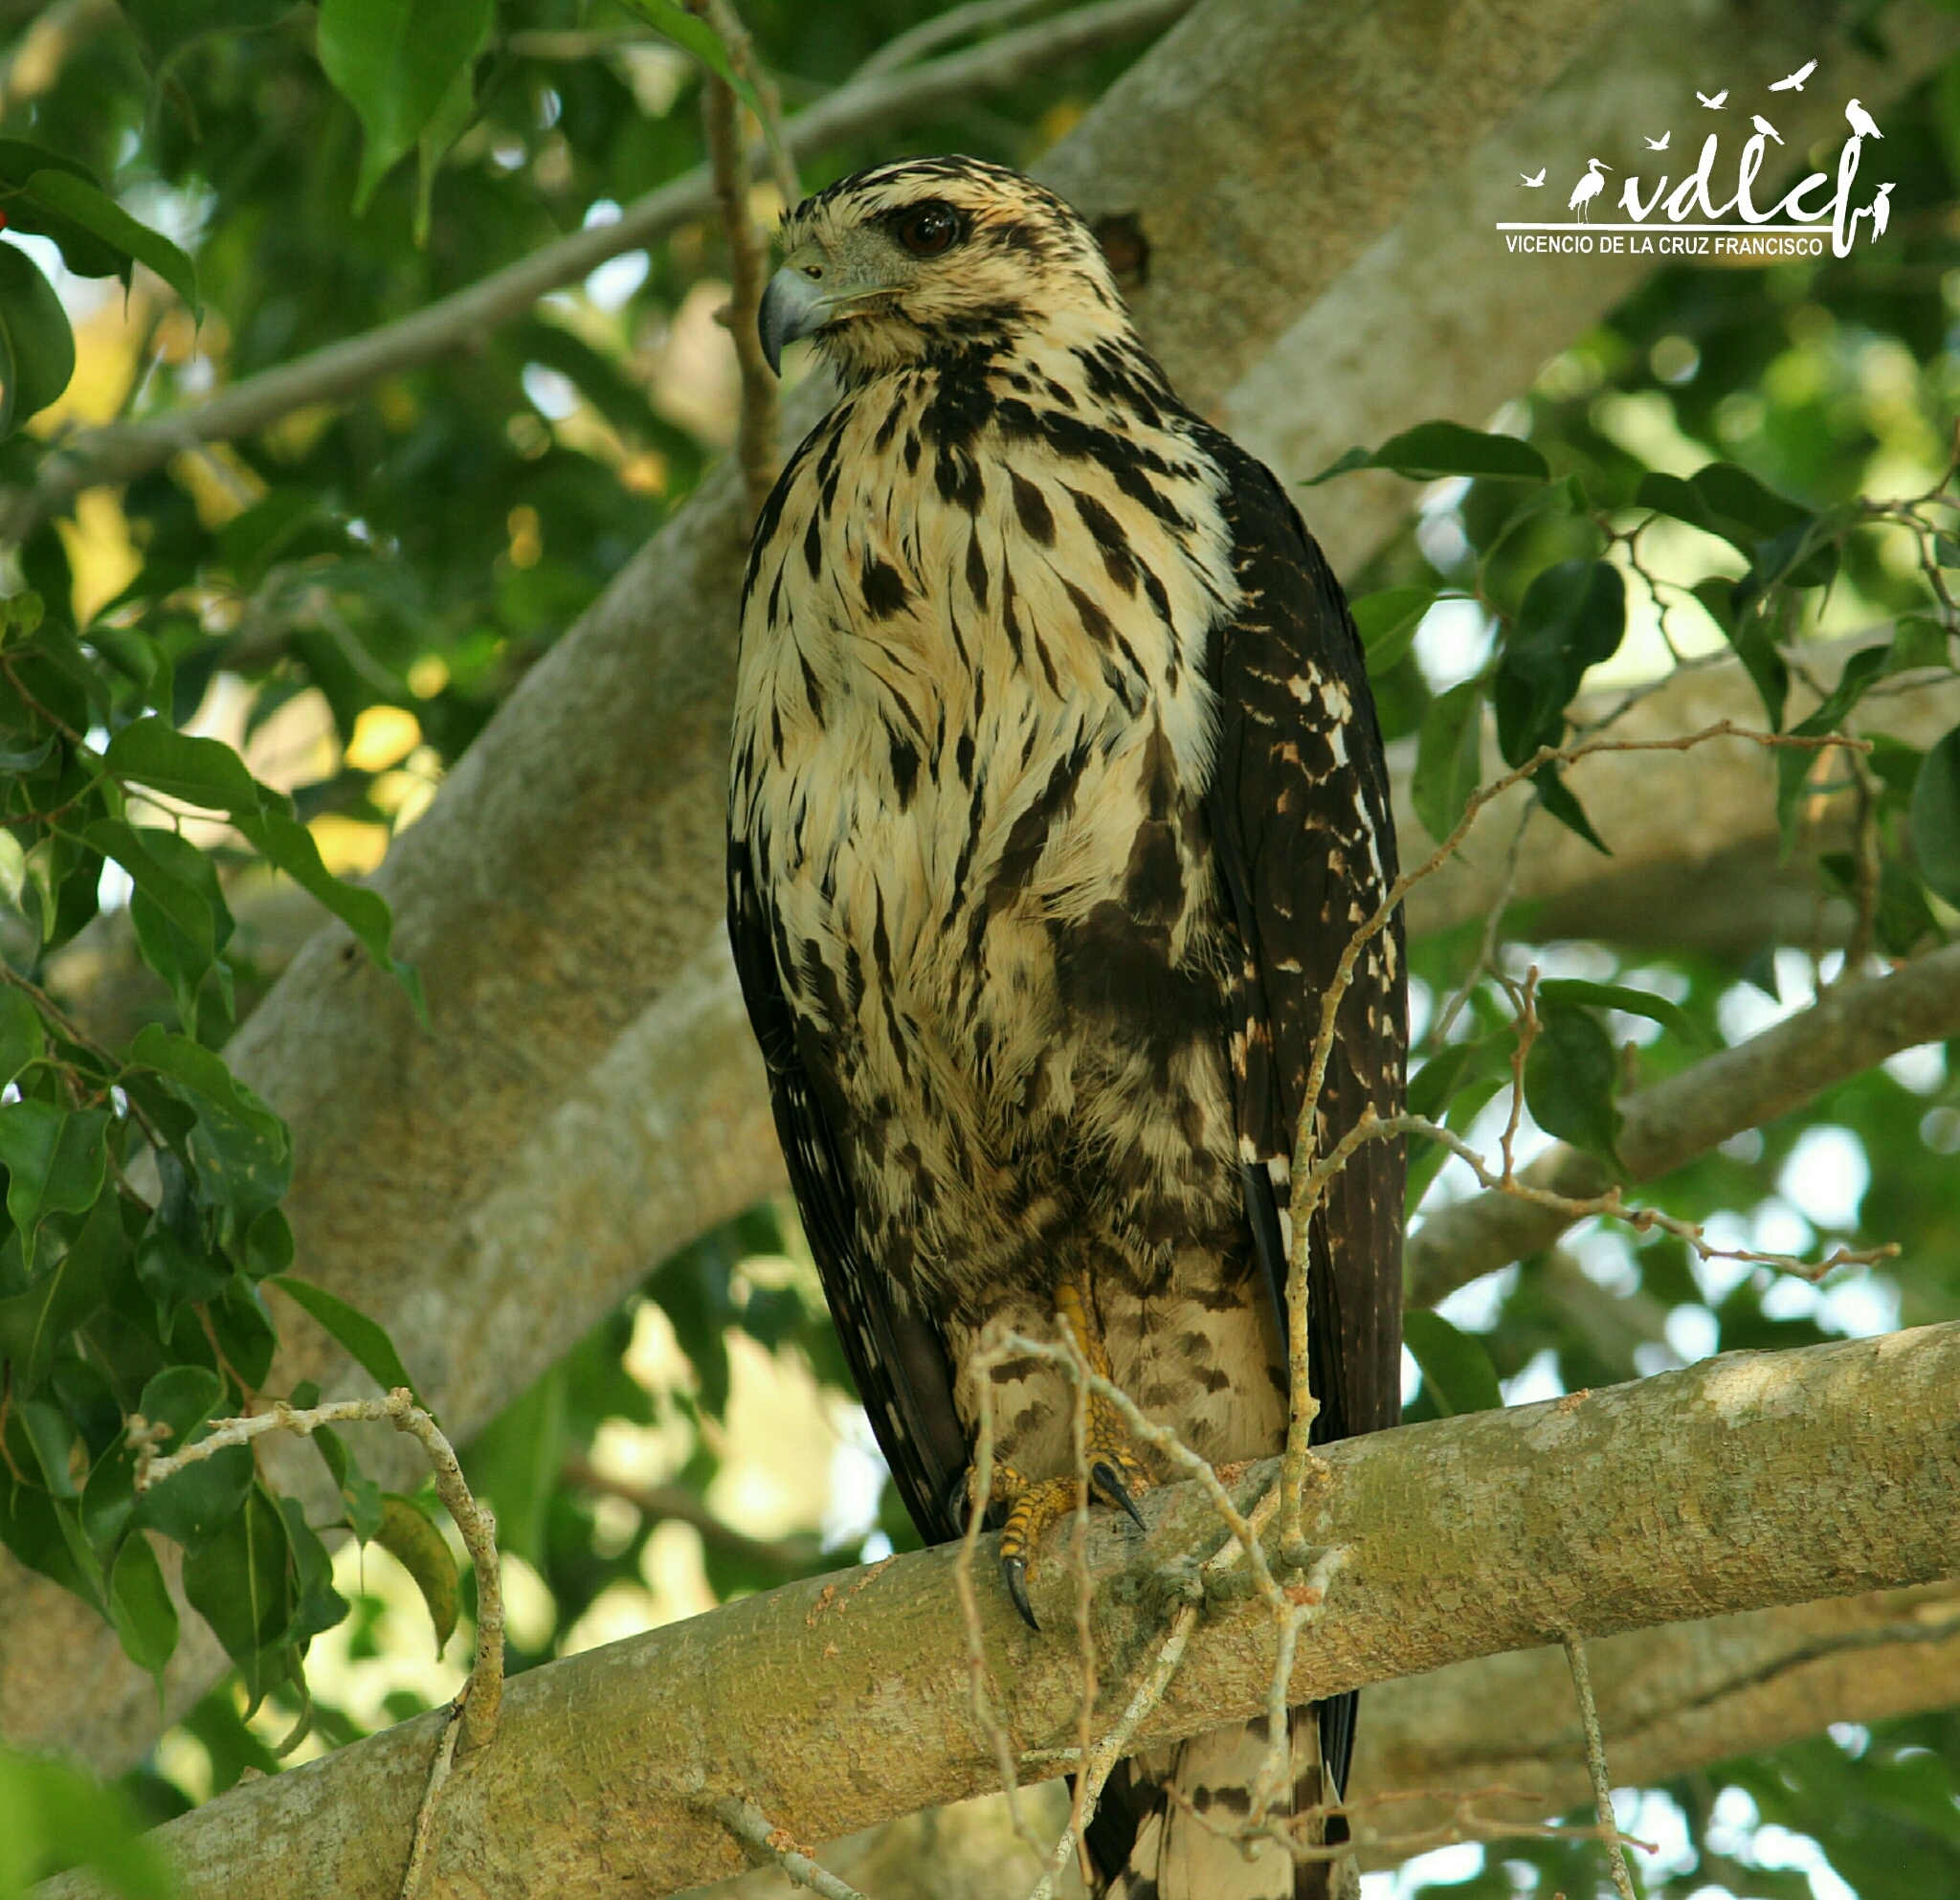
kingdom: Animalia
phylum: Chordata
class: Aves
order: Accipitriformes
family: Accipitridae
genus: Buteogallus
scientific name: Buteogallus anthracinus
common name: Common black hawk
